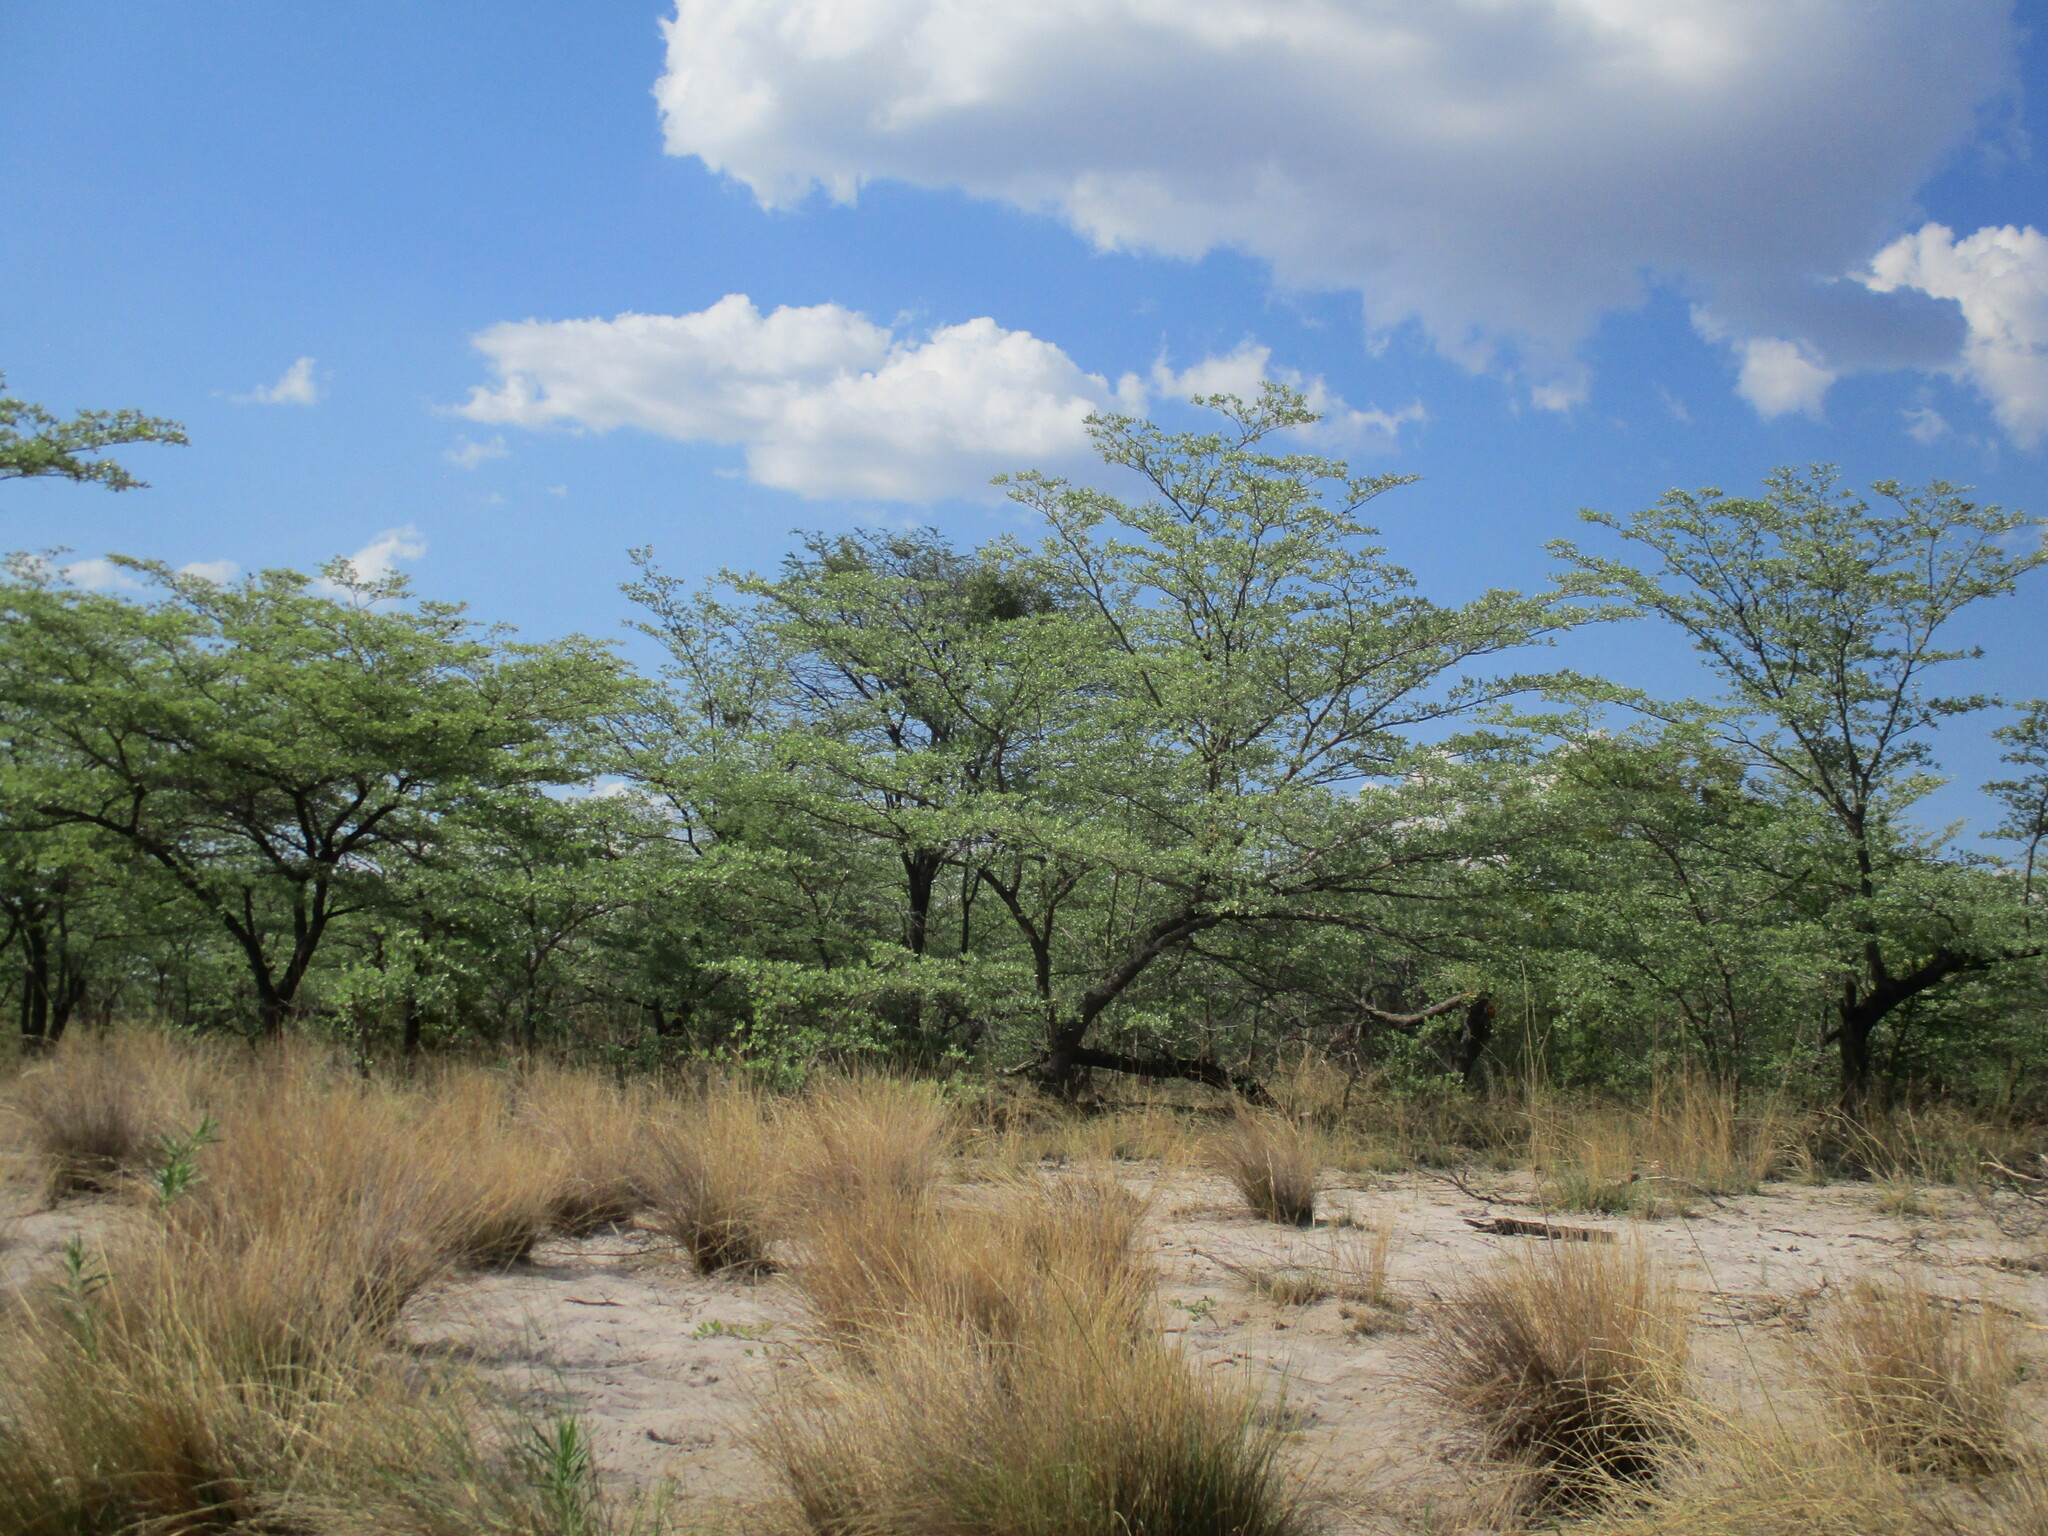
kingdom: Plantae
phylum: Tracheophyta
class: Magnoliopsida
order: Myrtales
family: Combretaceae
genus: Terminalia
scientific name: Terminalia sericea
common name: Clusterleaf
